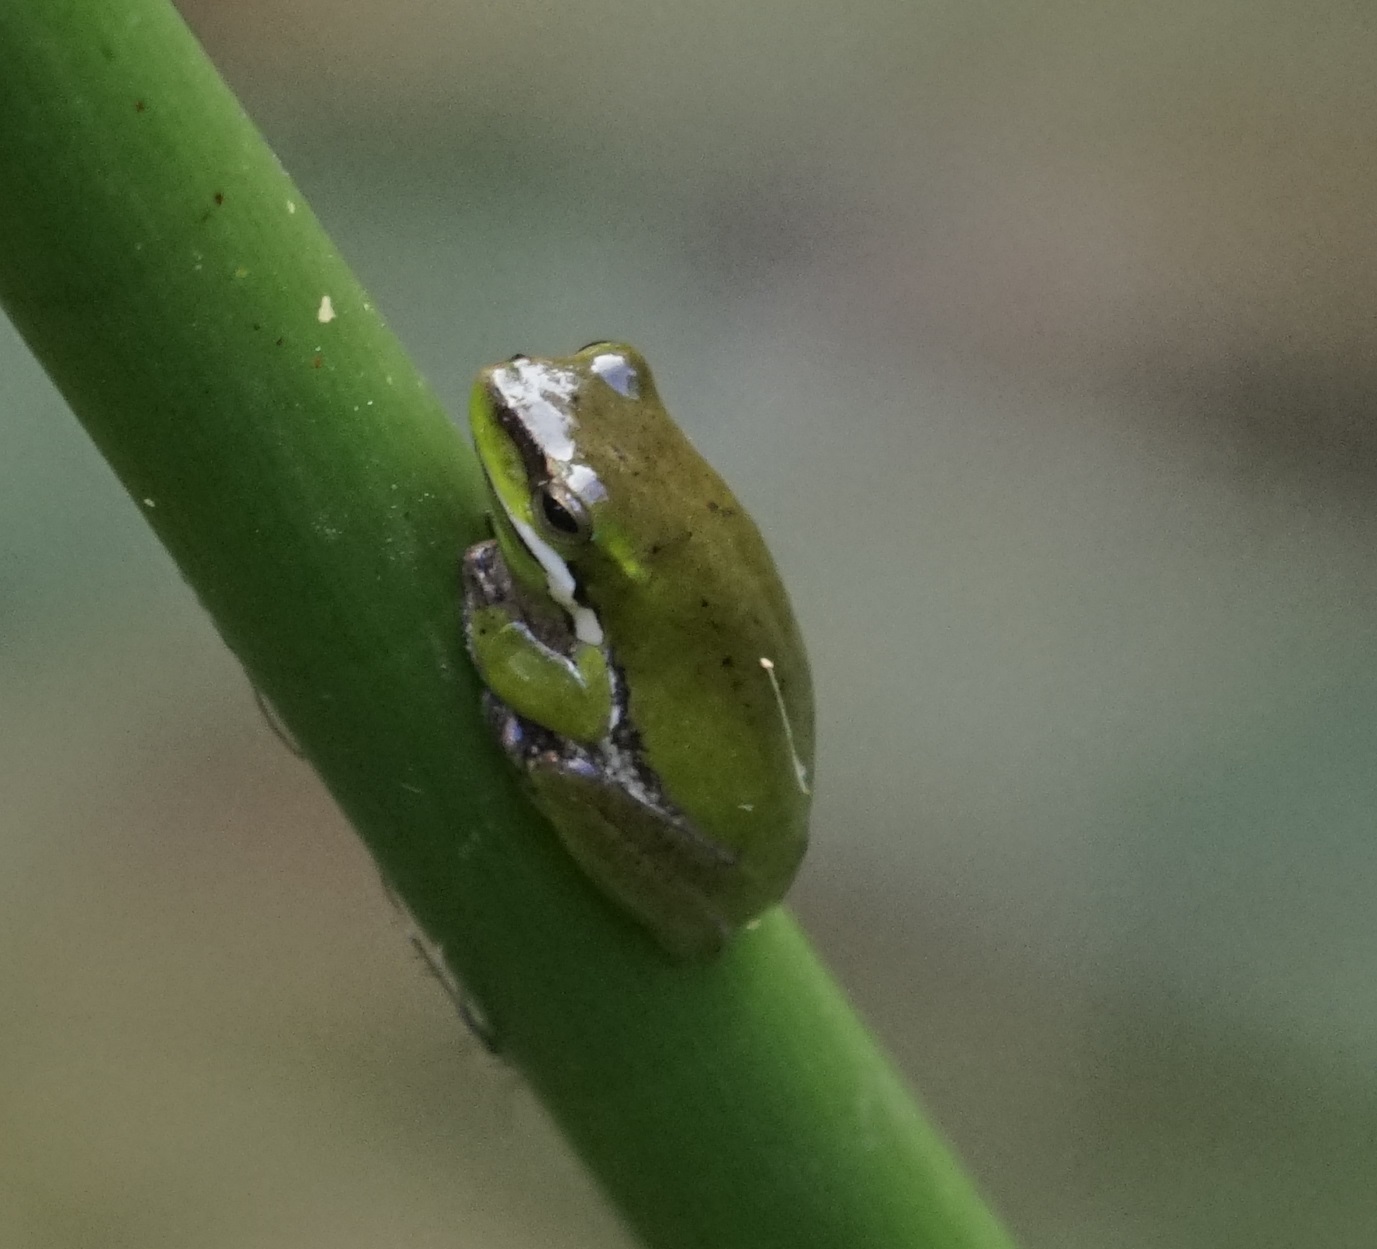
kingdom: Animalia
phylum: Chordata
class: Amphibia
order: Anura
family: Pelodryadidae
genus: Litoria
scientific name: Litoria fallax
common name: Eastern dwarf treefrog
